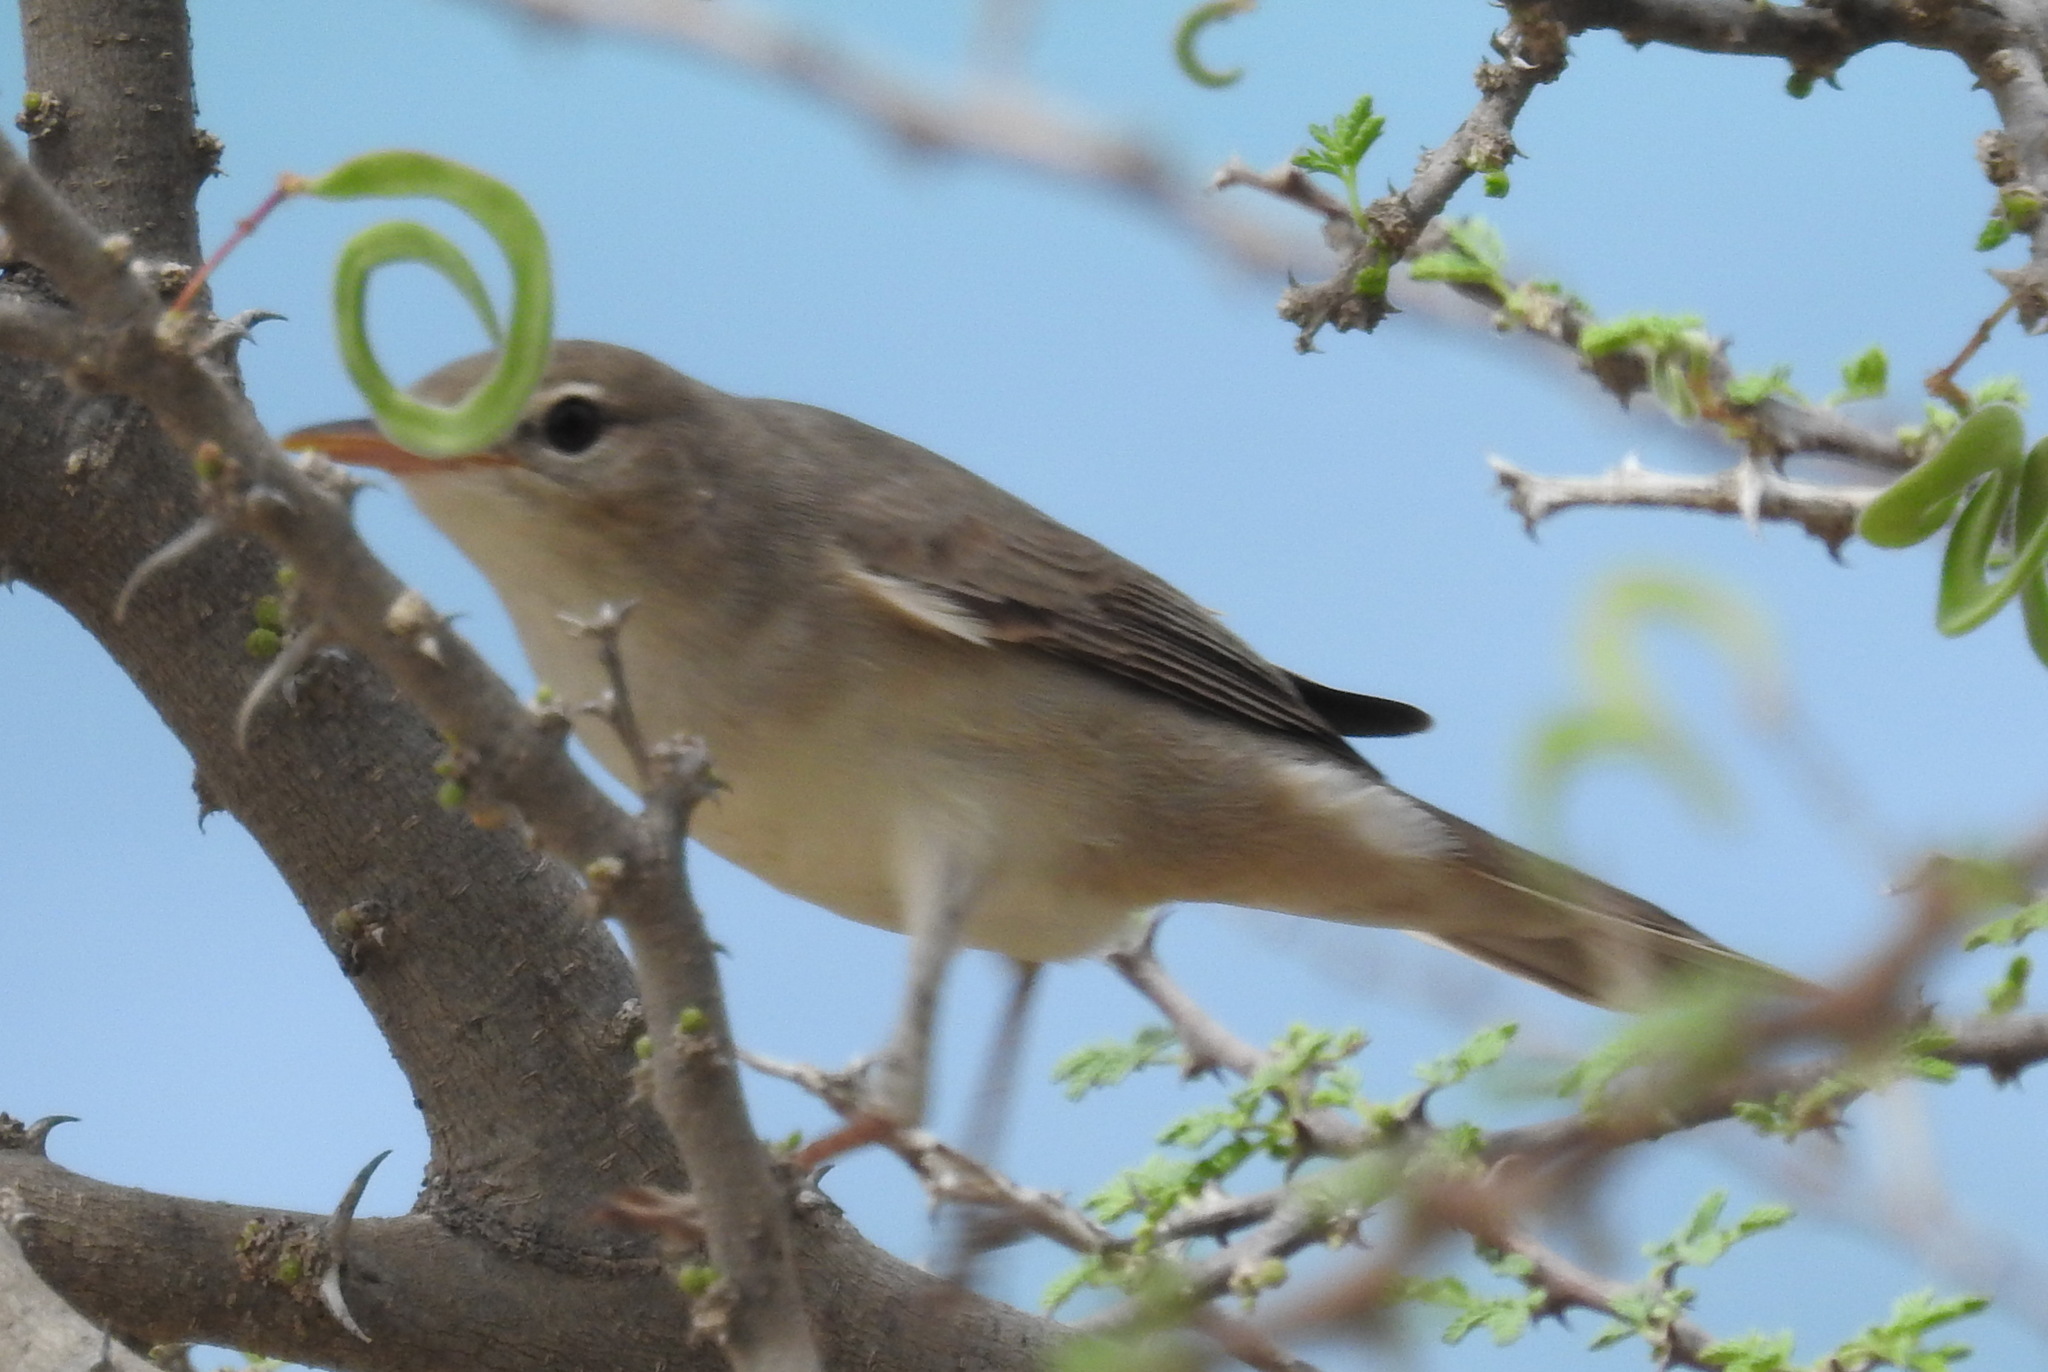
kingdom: Animalia
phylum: Chordata
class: Aves
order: Passeriformes
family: Acrocephalidae
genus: Hippolais
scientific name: Hippolais languida
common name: Upcher's warbler
